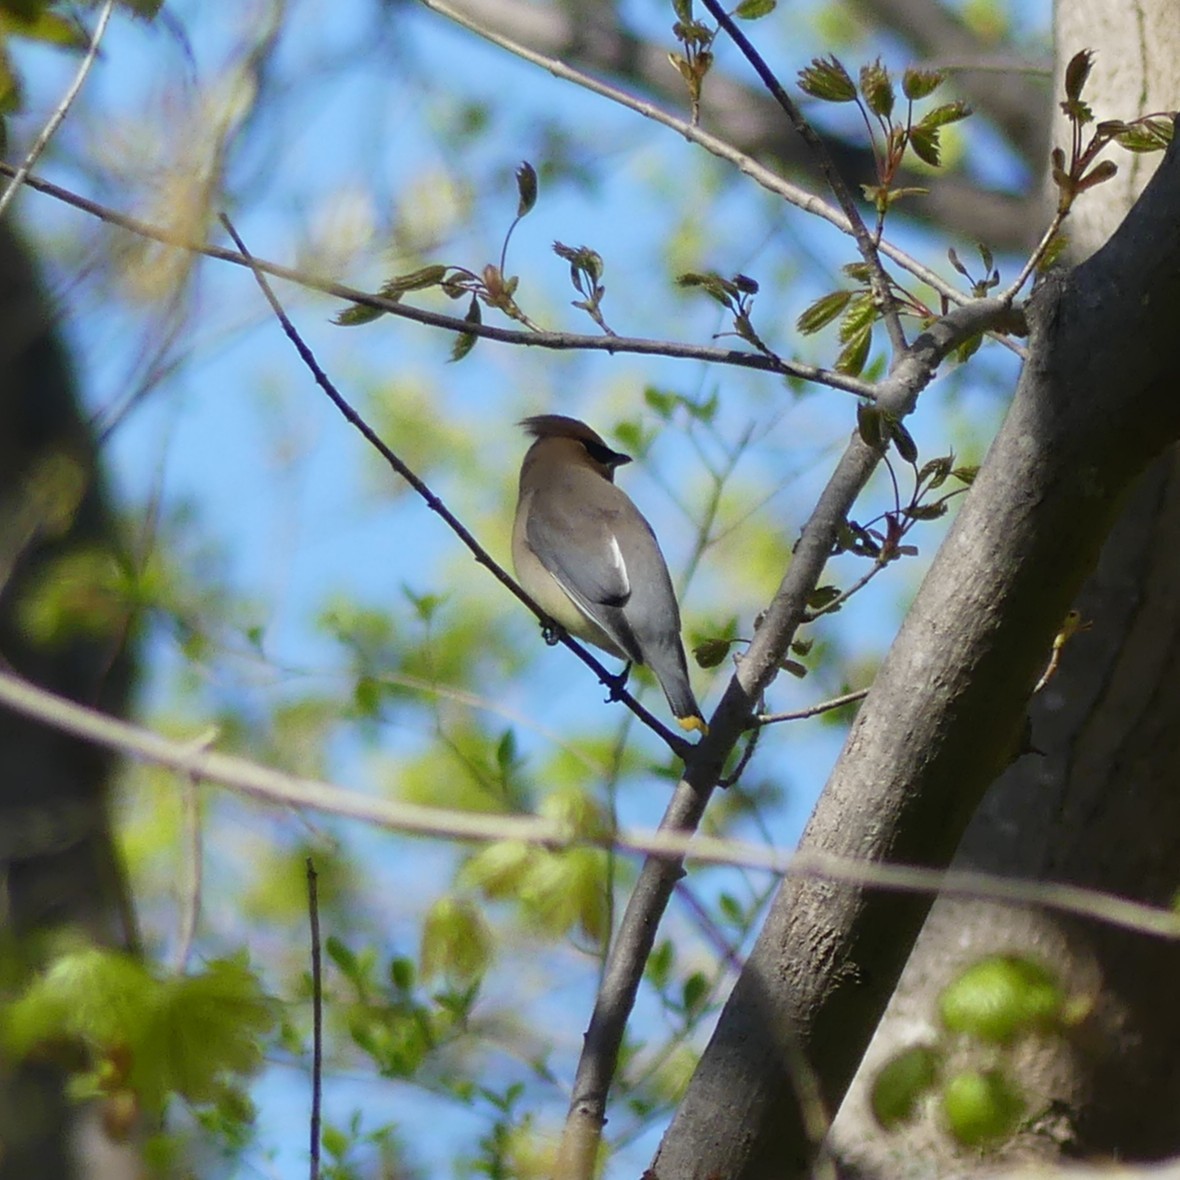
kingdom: Animalia
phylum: Chordata
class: Aves
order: Passeriformes
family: Bombycillidae
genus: Bombycilla
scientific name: Bombycilla cedrorum
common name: Cedar waxwing
